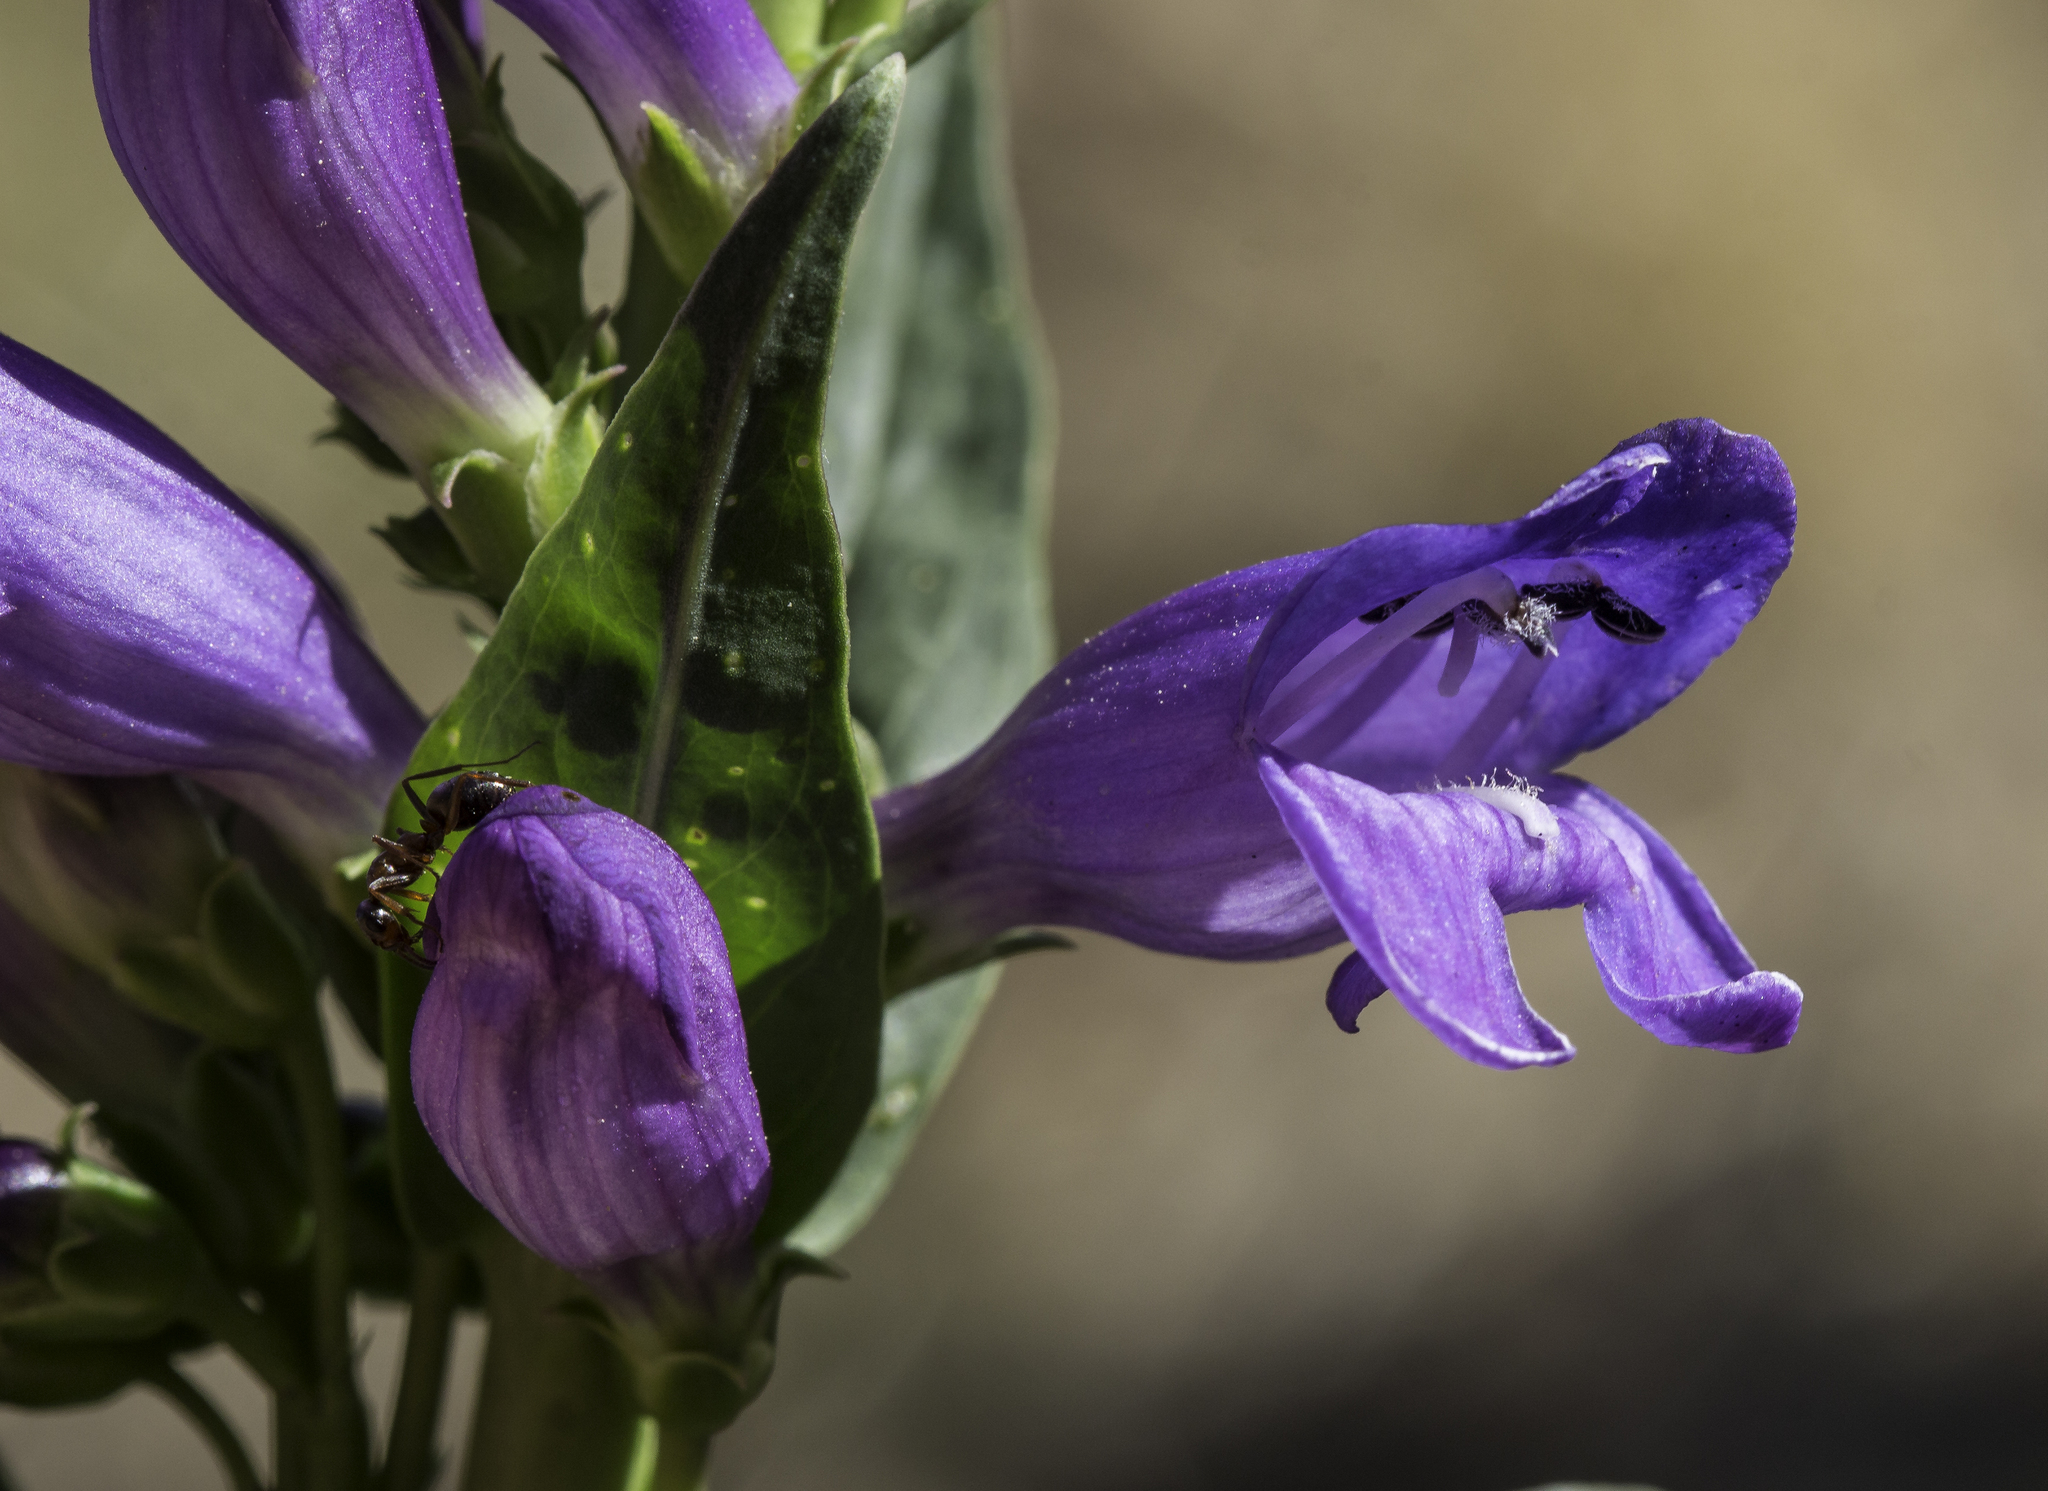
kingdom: Plantae
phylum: Tracheophyta
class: Magnoliopsida
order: Lamiales
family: Plantaginaceae
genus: Penstemon
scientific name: Penstemon strictus
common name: Rocky mountain penstemon
